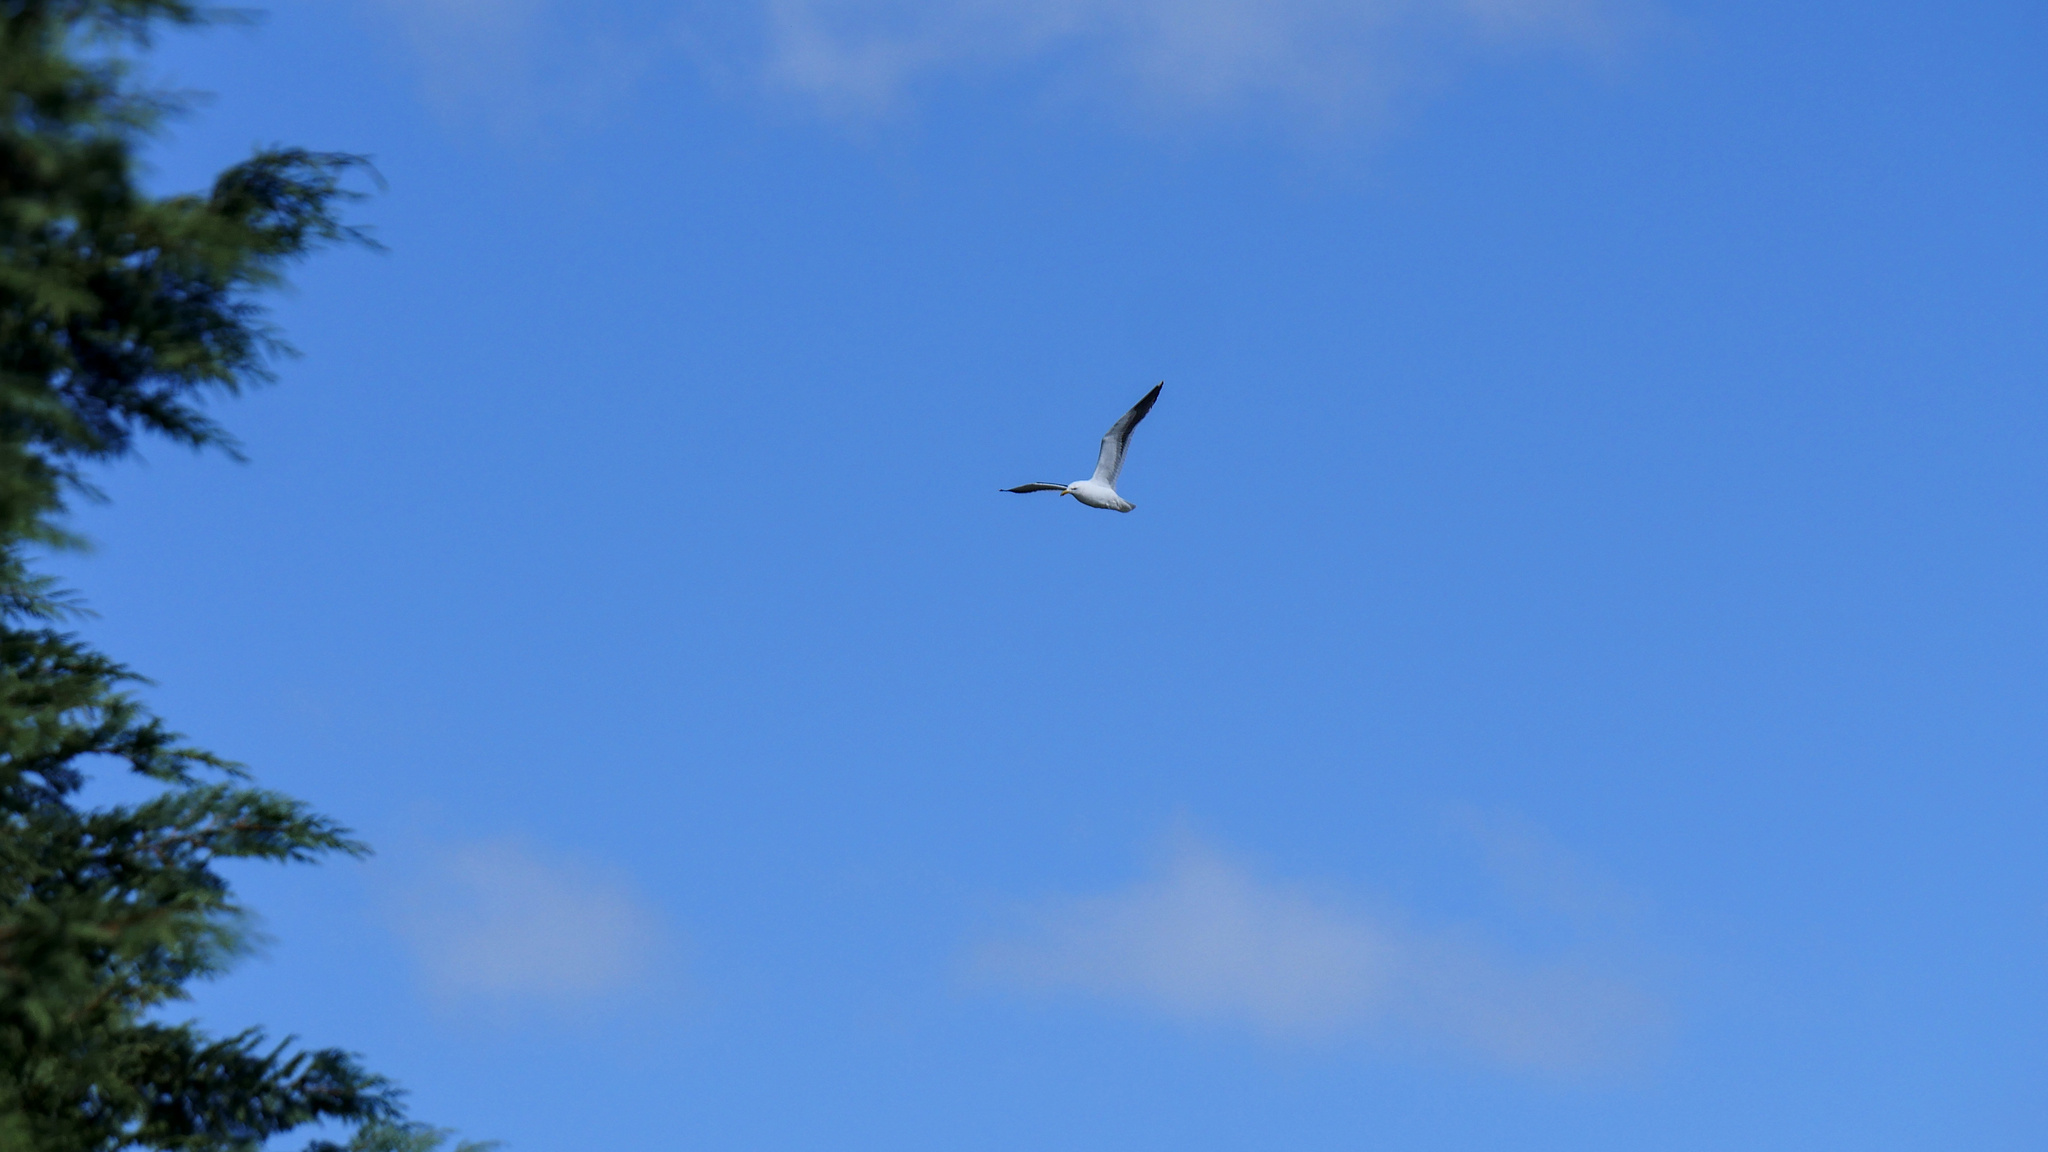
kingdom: Animalia
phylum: Chordata
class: Aves
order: Charadriiformes
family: Laridae
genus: Larus
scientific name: Larus dominicanus
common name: Kelp gull
